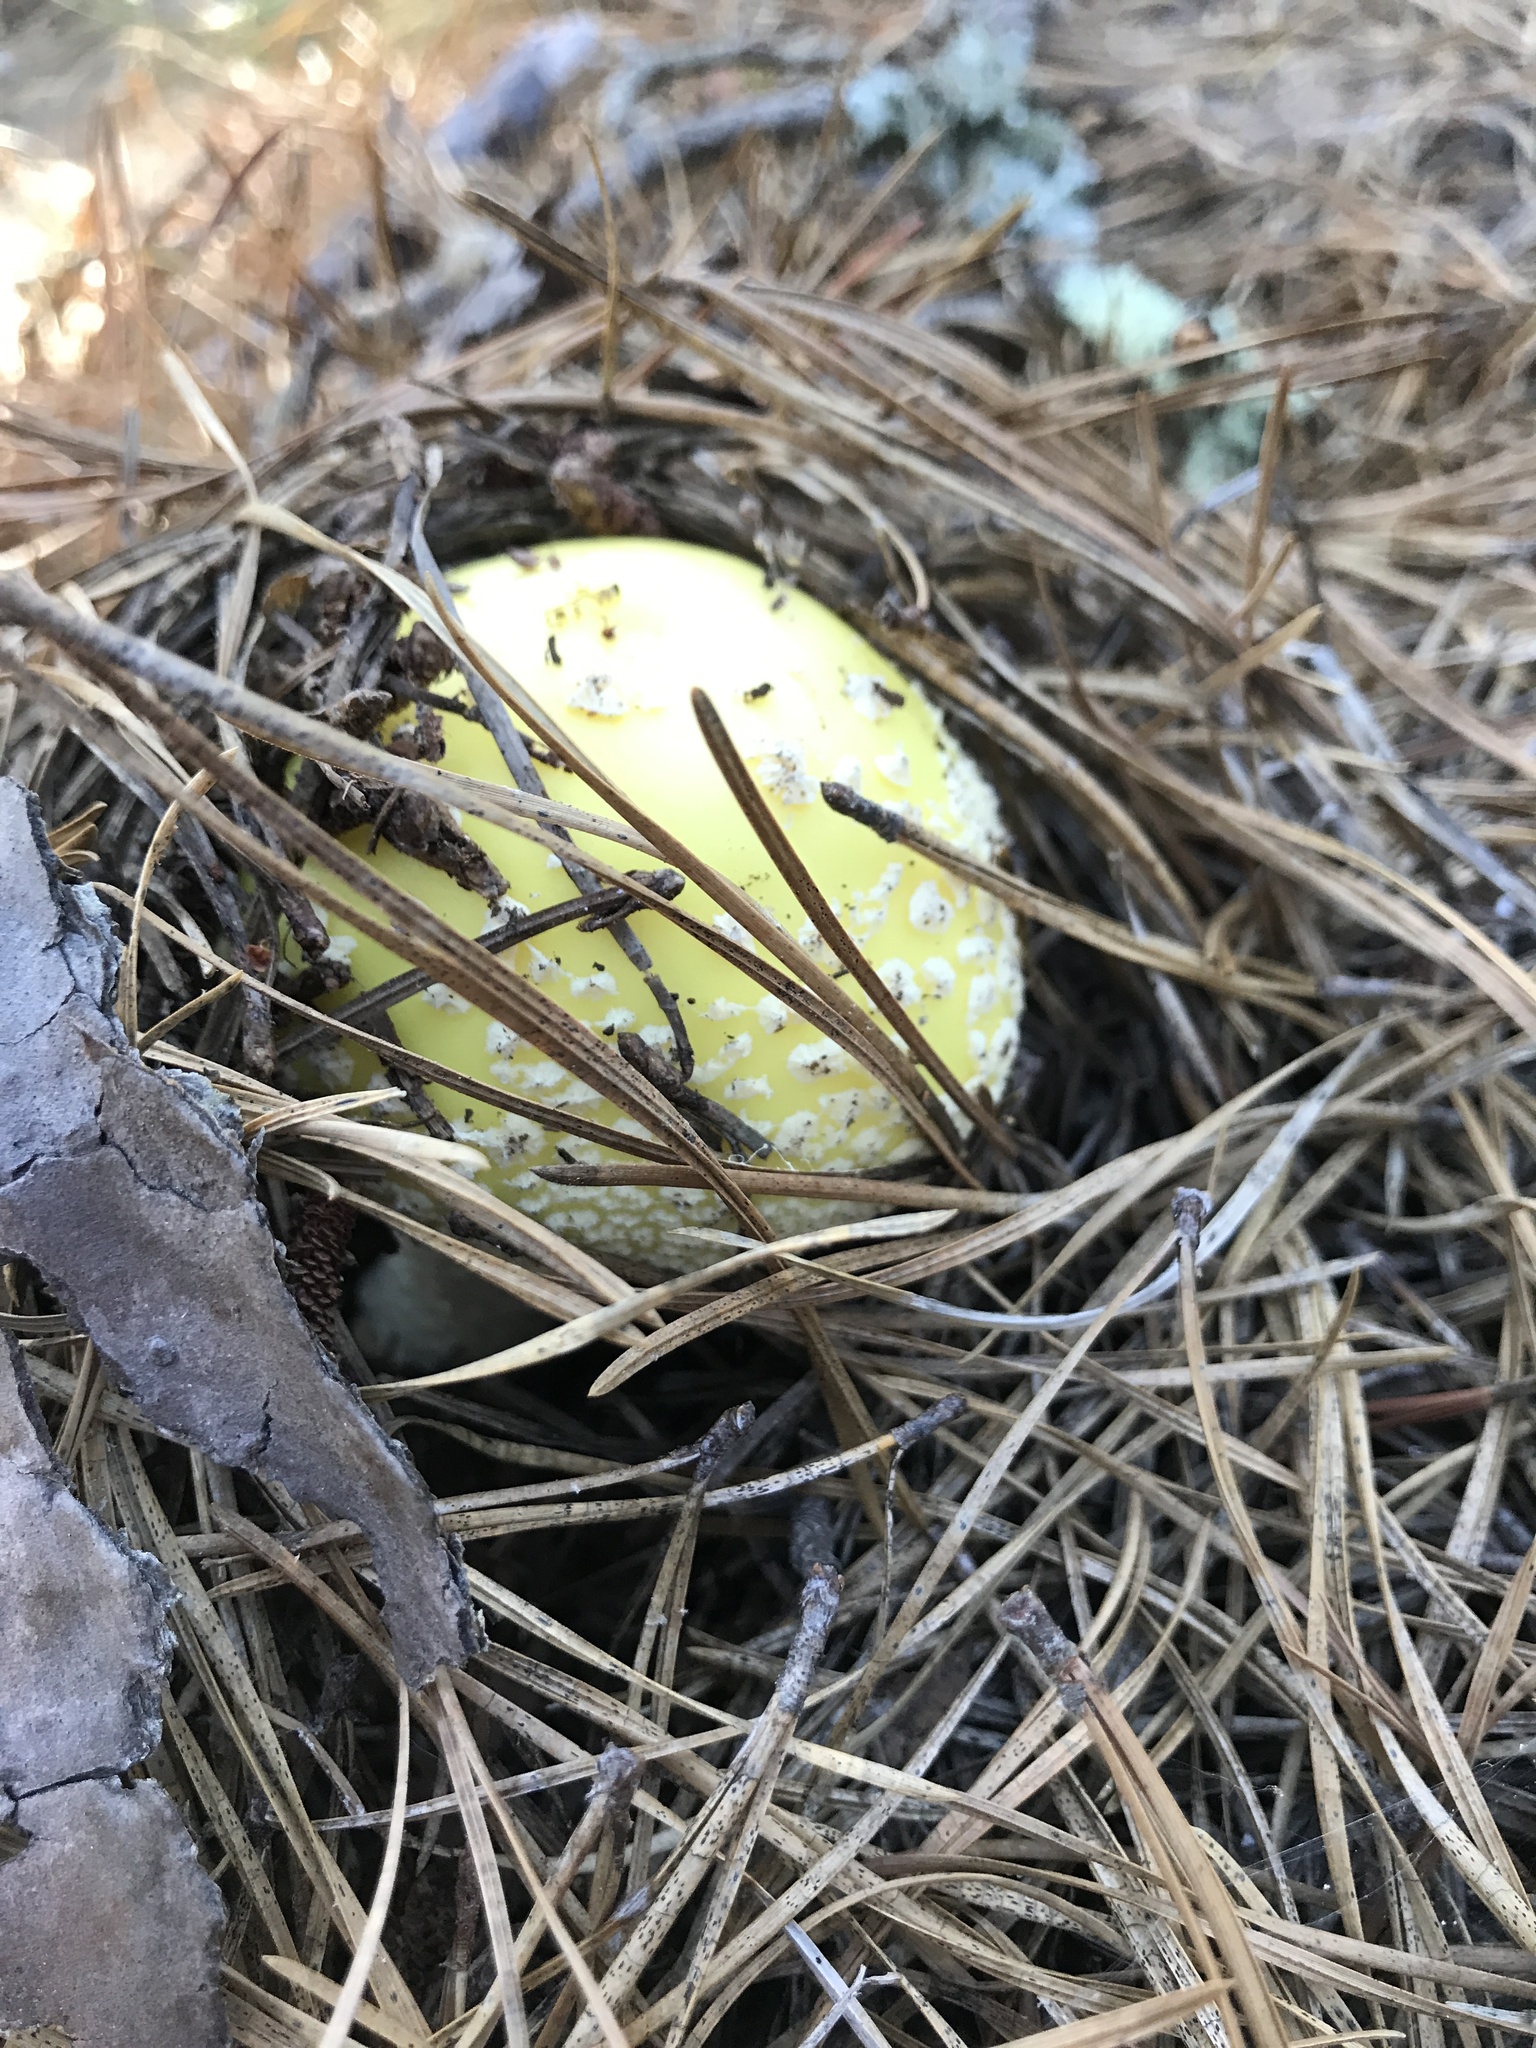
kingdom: Fungi
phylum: Basidiomycota
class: Agaricomycetes
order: Agaricales
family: Amanitaceae
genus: Amanita
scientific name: Amanita muscaria
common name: Fly agaric
